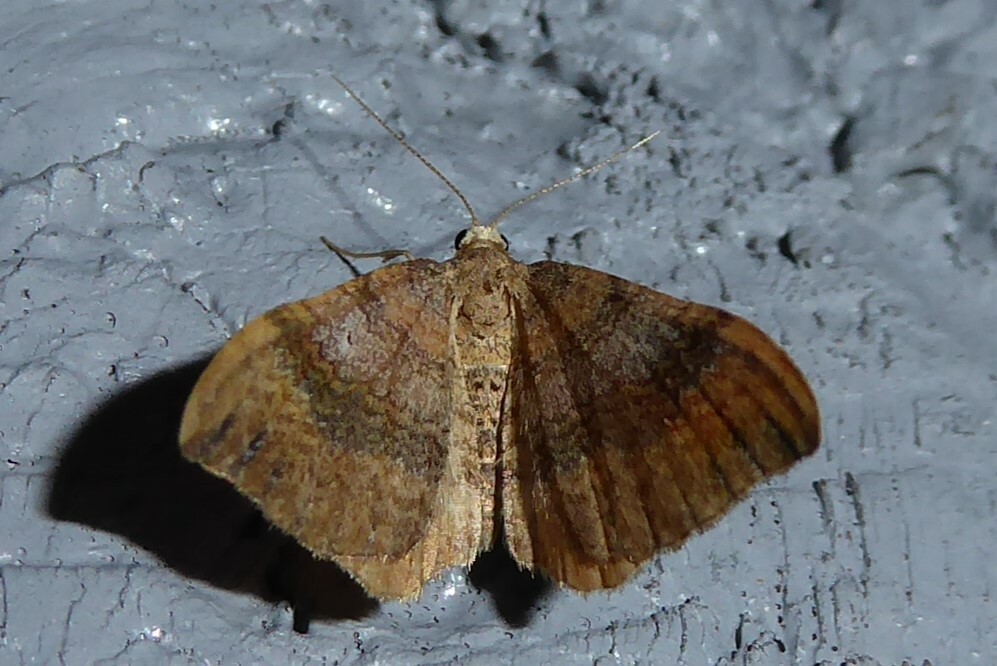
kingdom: Animalia
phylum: Arthropoda
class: Insecta
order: Lepidoptera
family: Geometridae
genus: Homodotis
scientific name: Homodotis megaspilata
